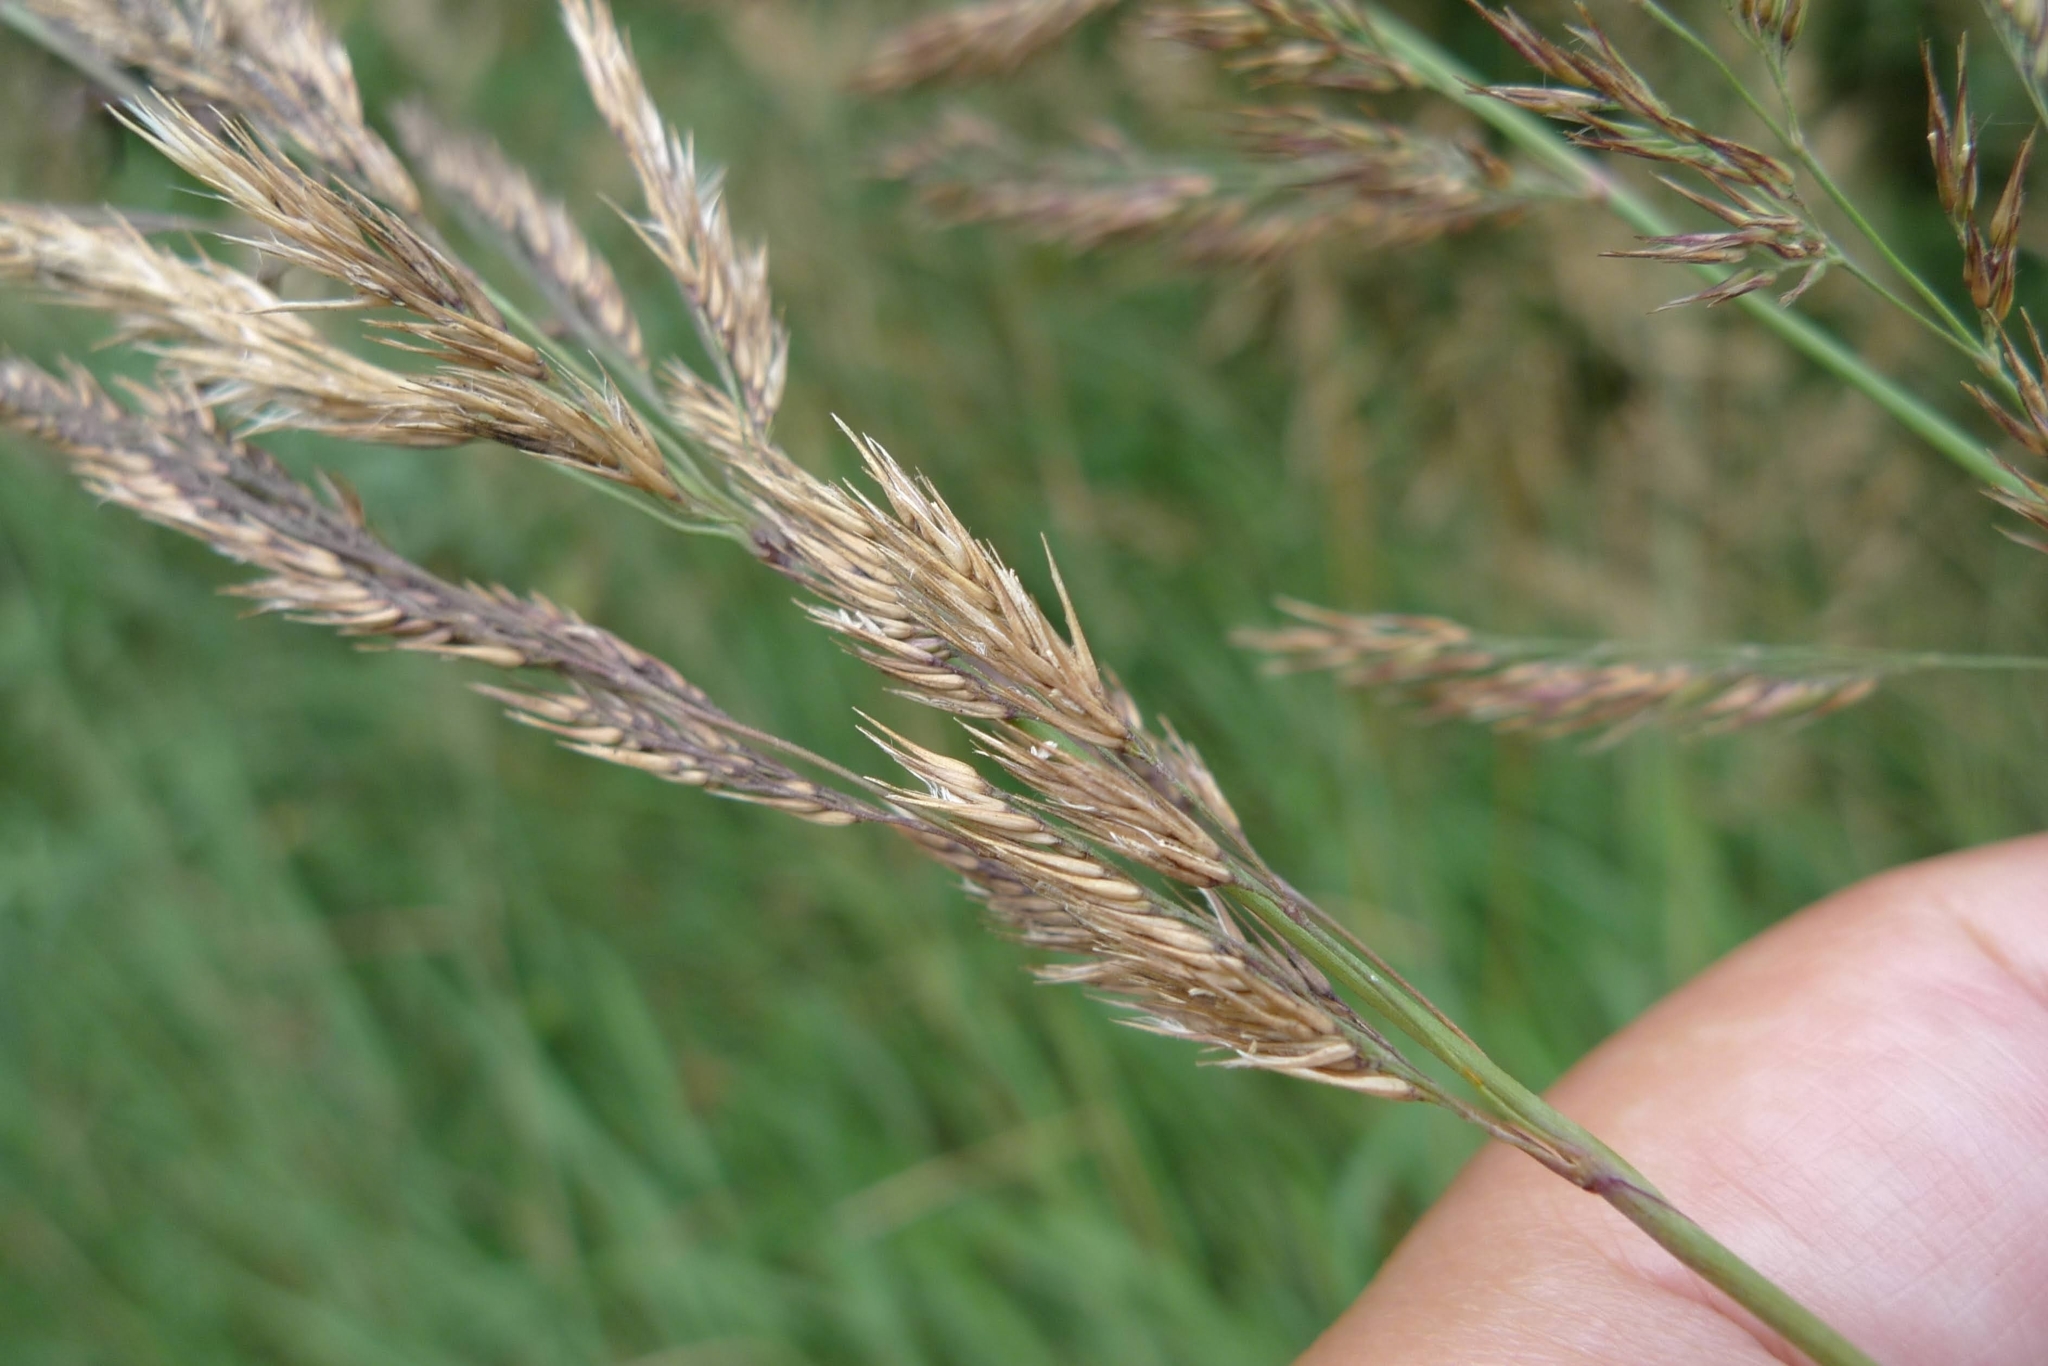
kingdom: Plantae
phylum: Tracheophyta
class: Liliopsida
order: Poales
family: Poaceae
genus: Calamagrostis
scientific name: Calamagrostis epigejos
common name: Wood small-reed
